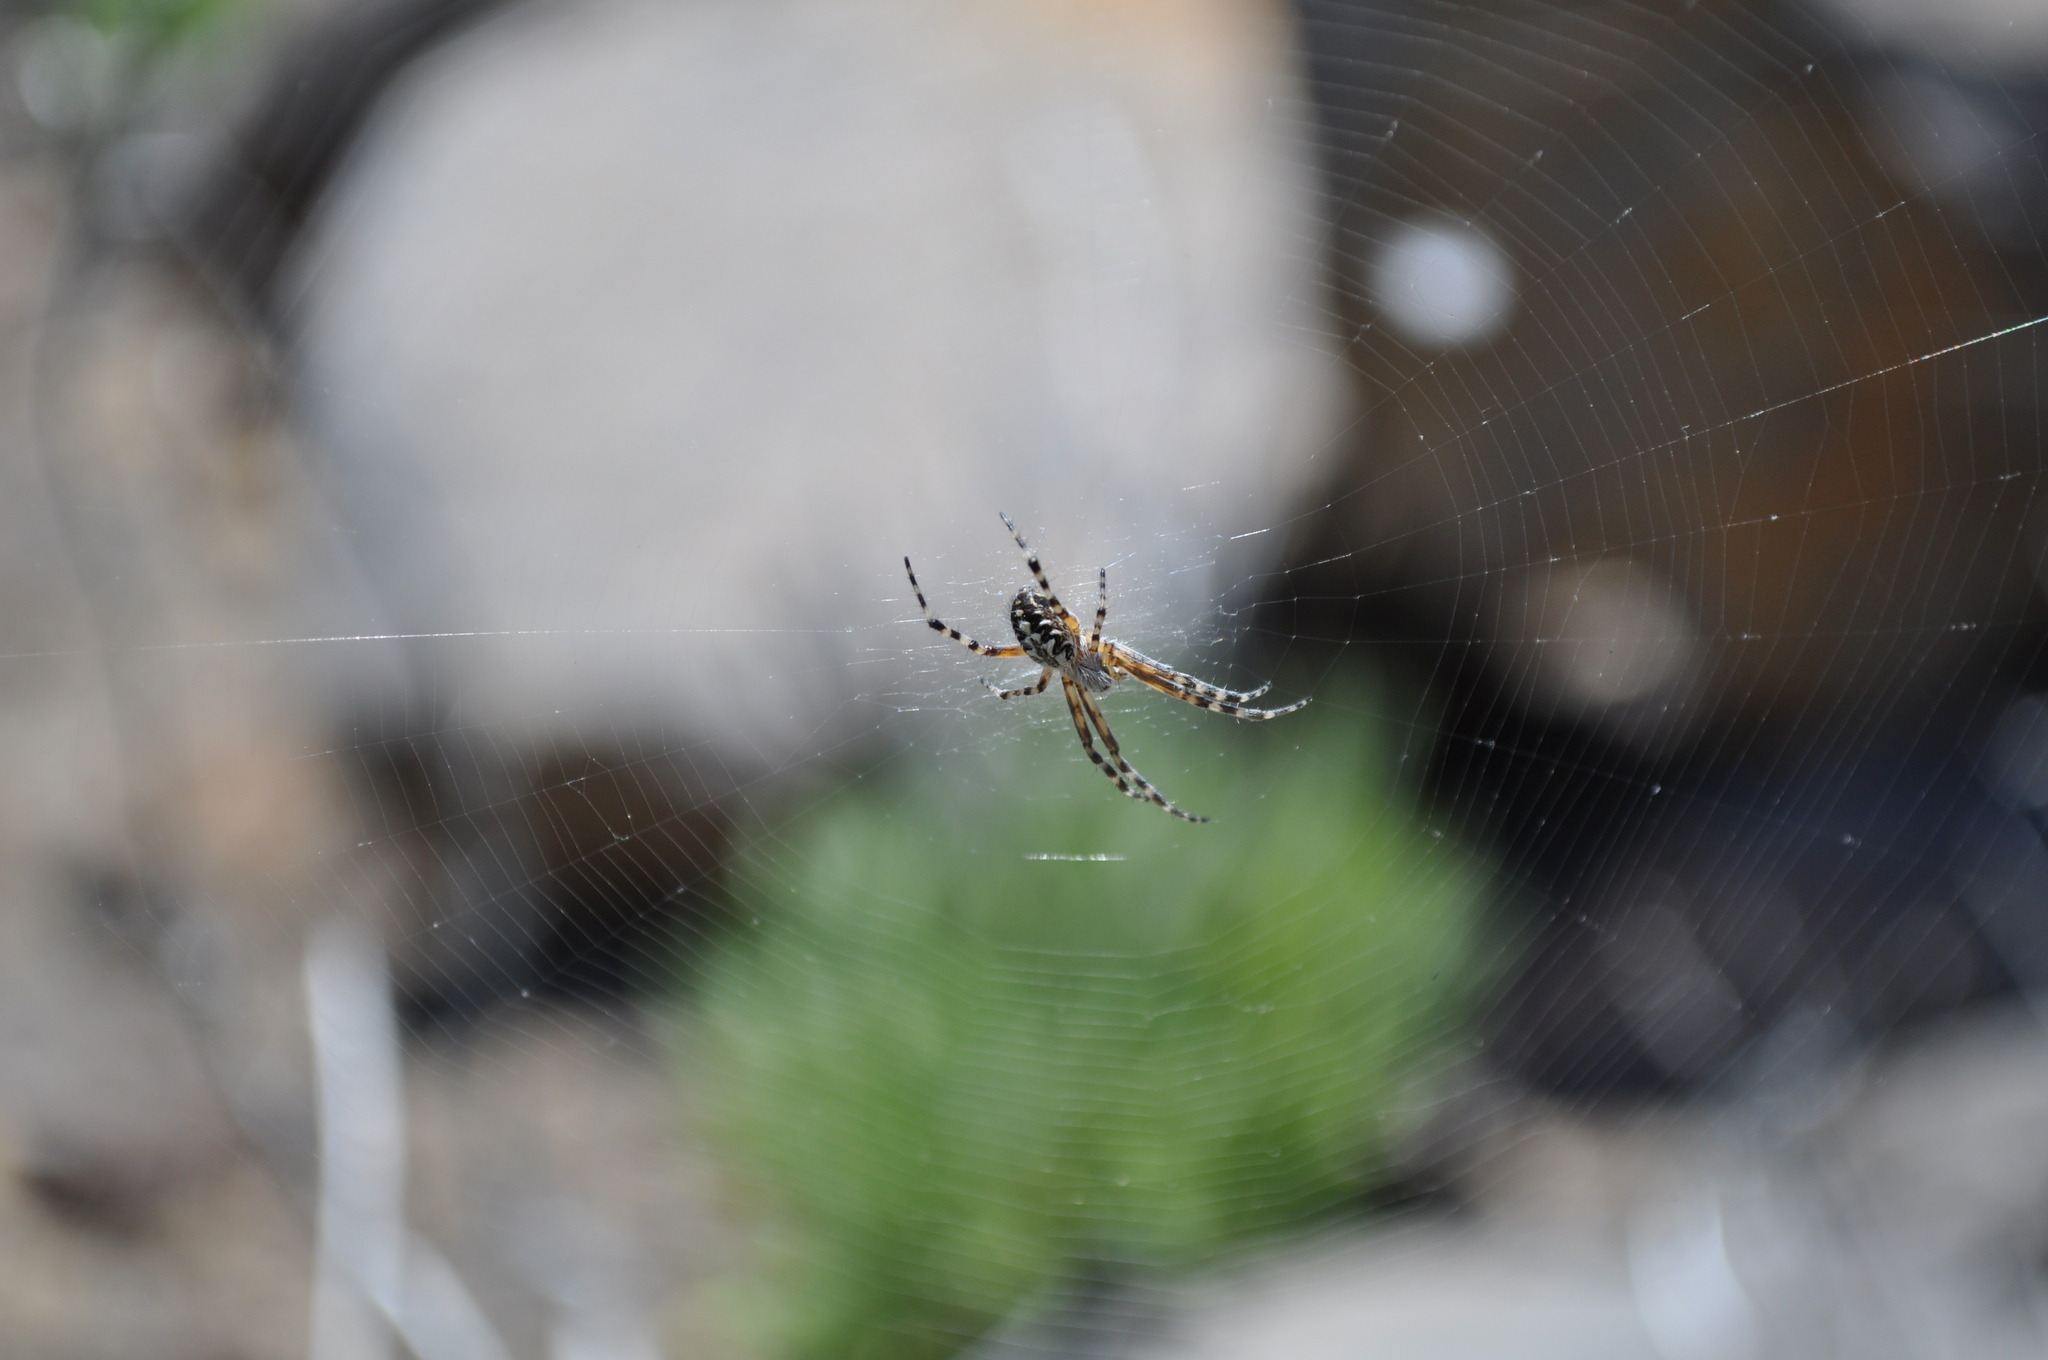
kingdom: Animalia
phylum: Arthropoda
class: Arachnida
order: Araneae
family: Araneidae
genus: Araneus
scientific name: Araneus annulipes
